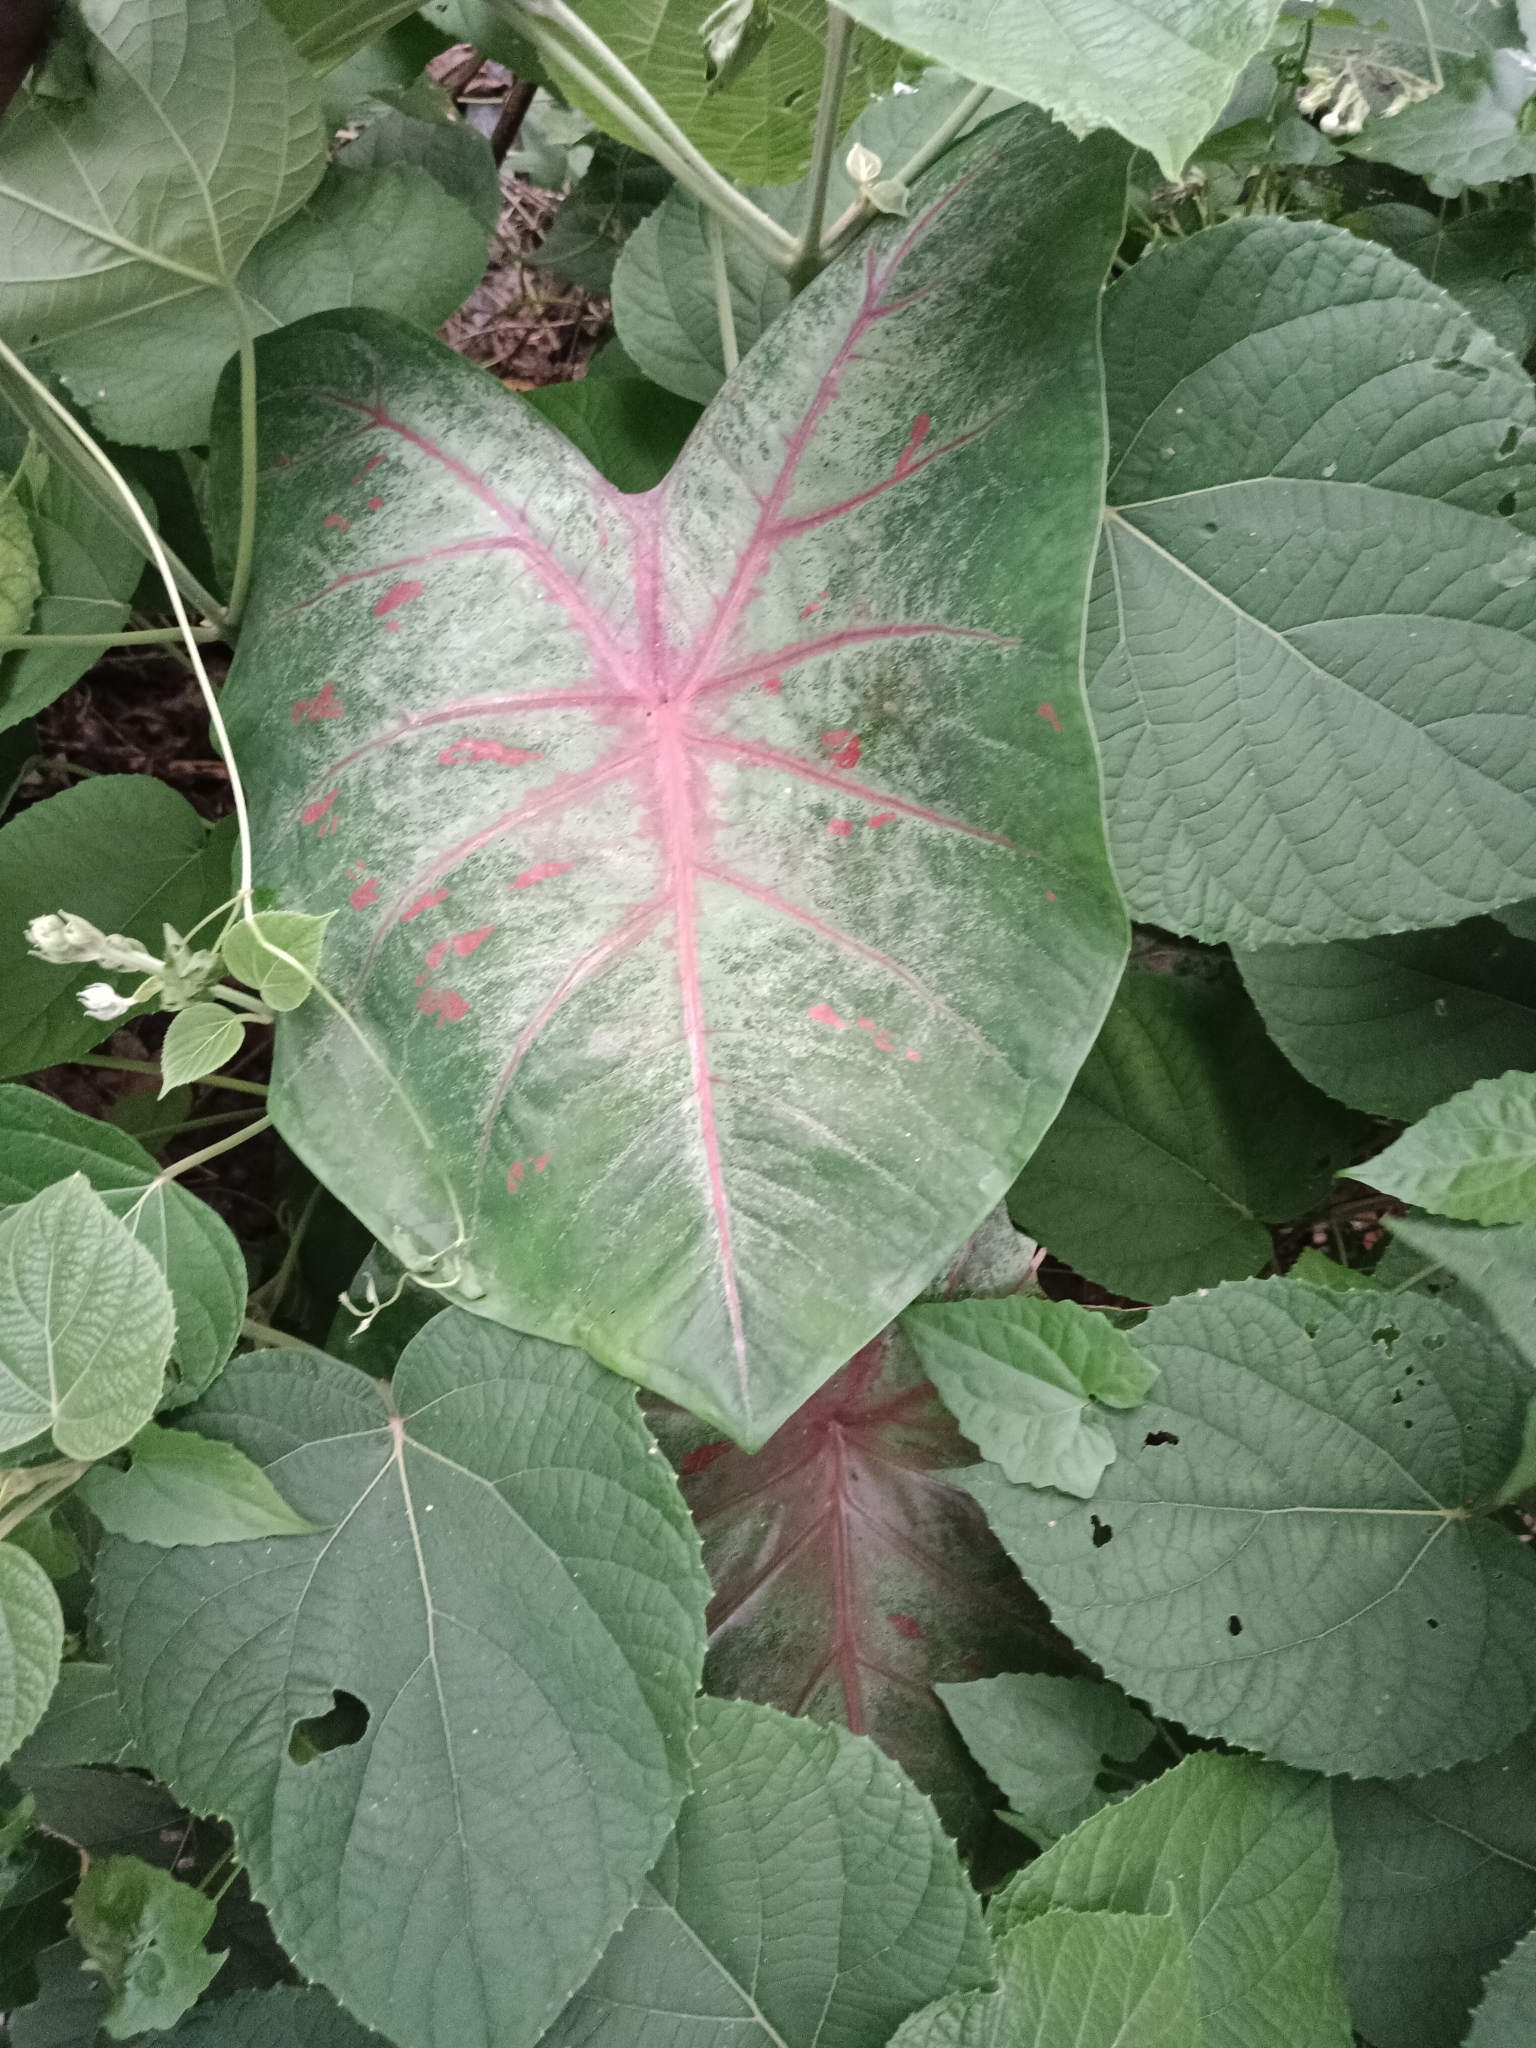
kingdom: Plantae
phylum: Tracheophyta
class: Liliopsida
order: Alismatales
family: Araceae
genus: Caladium
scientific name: Caladium bicolor
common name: Artist's pallet
